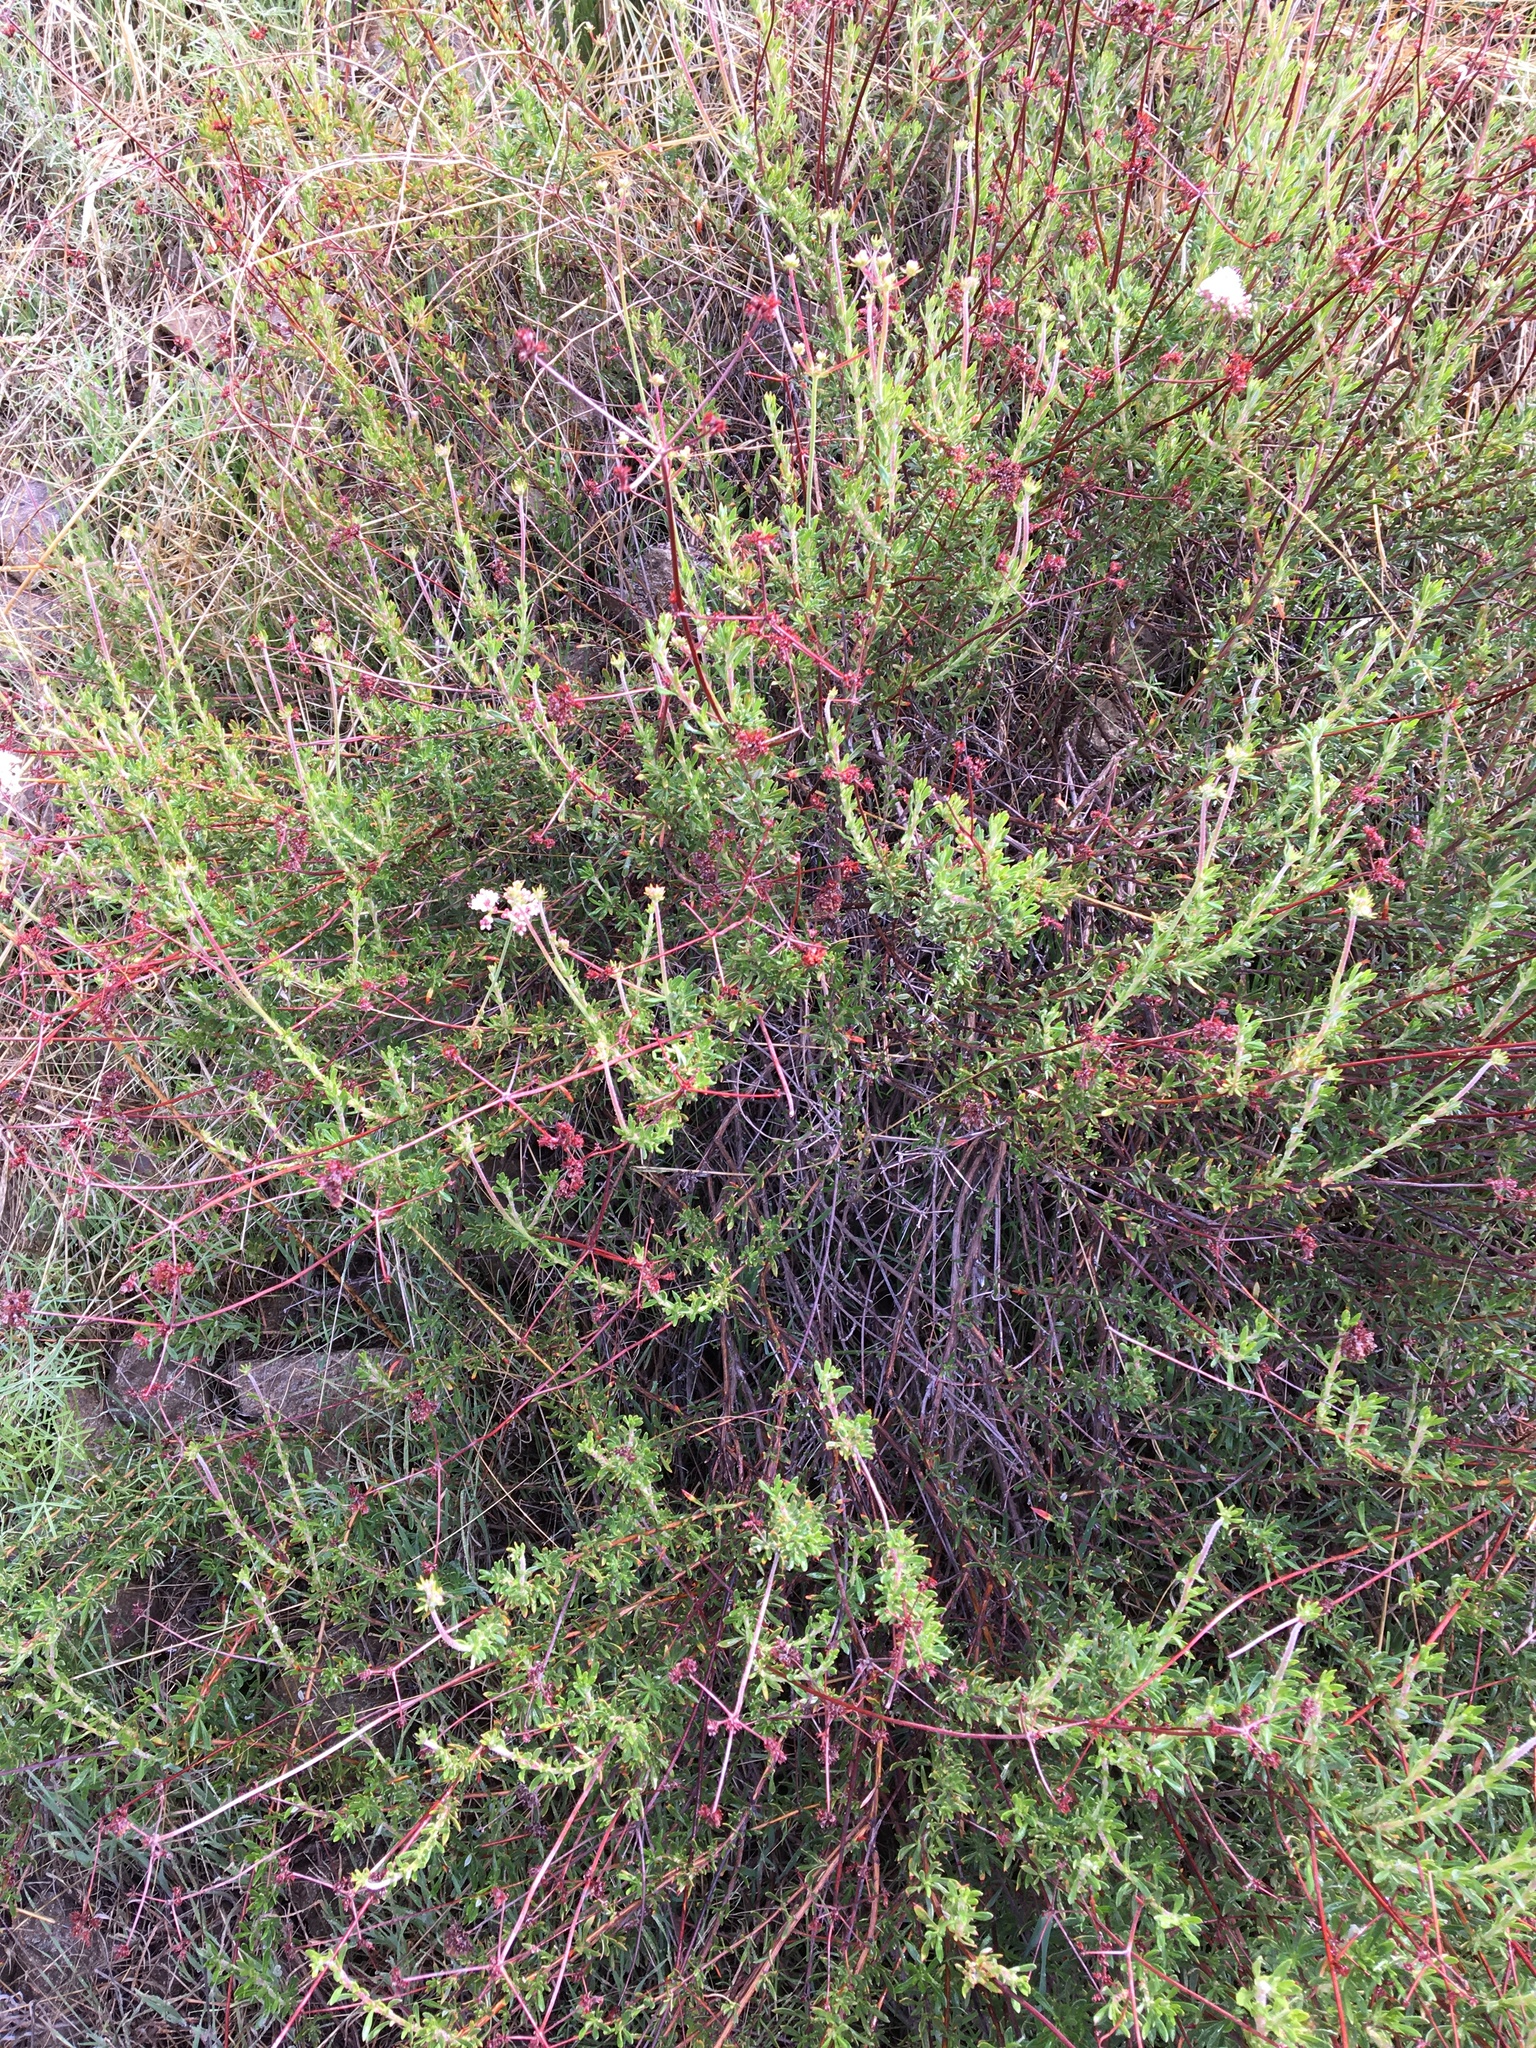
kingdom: Plantae
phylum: Tracheophyta
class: Magnoliopsida
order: Caryophyllales
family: Polygonaceae
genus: Eriogonum
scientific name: Eriogonum fasciculatum
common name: California wild buckwheat
